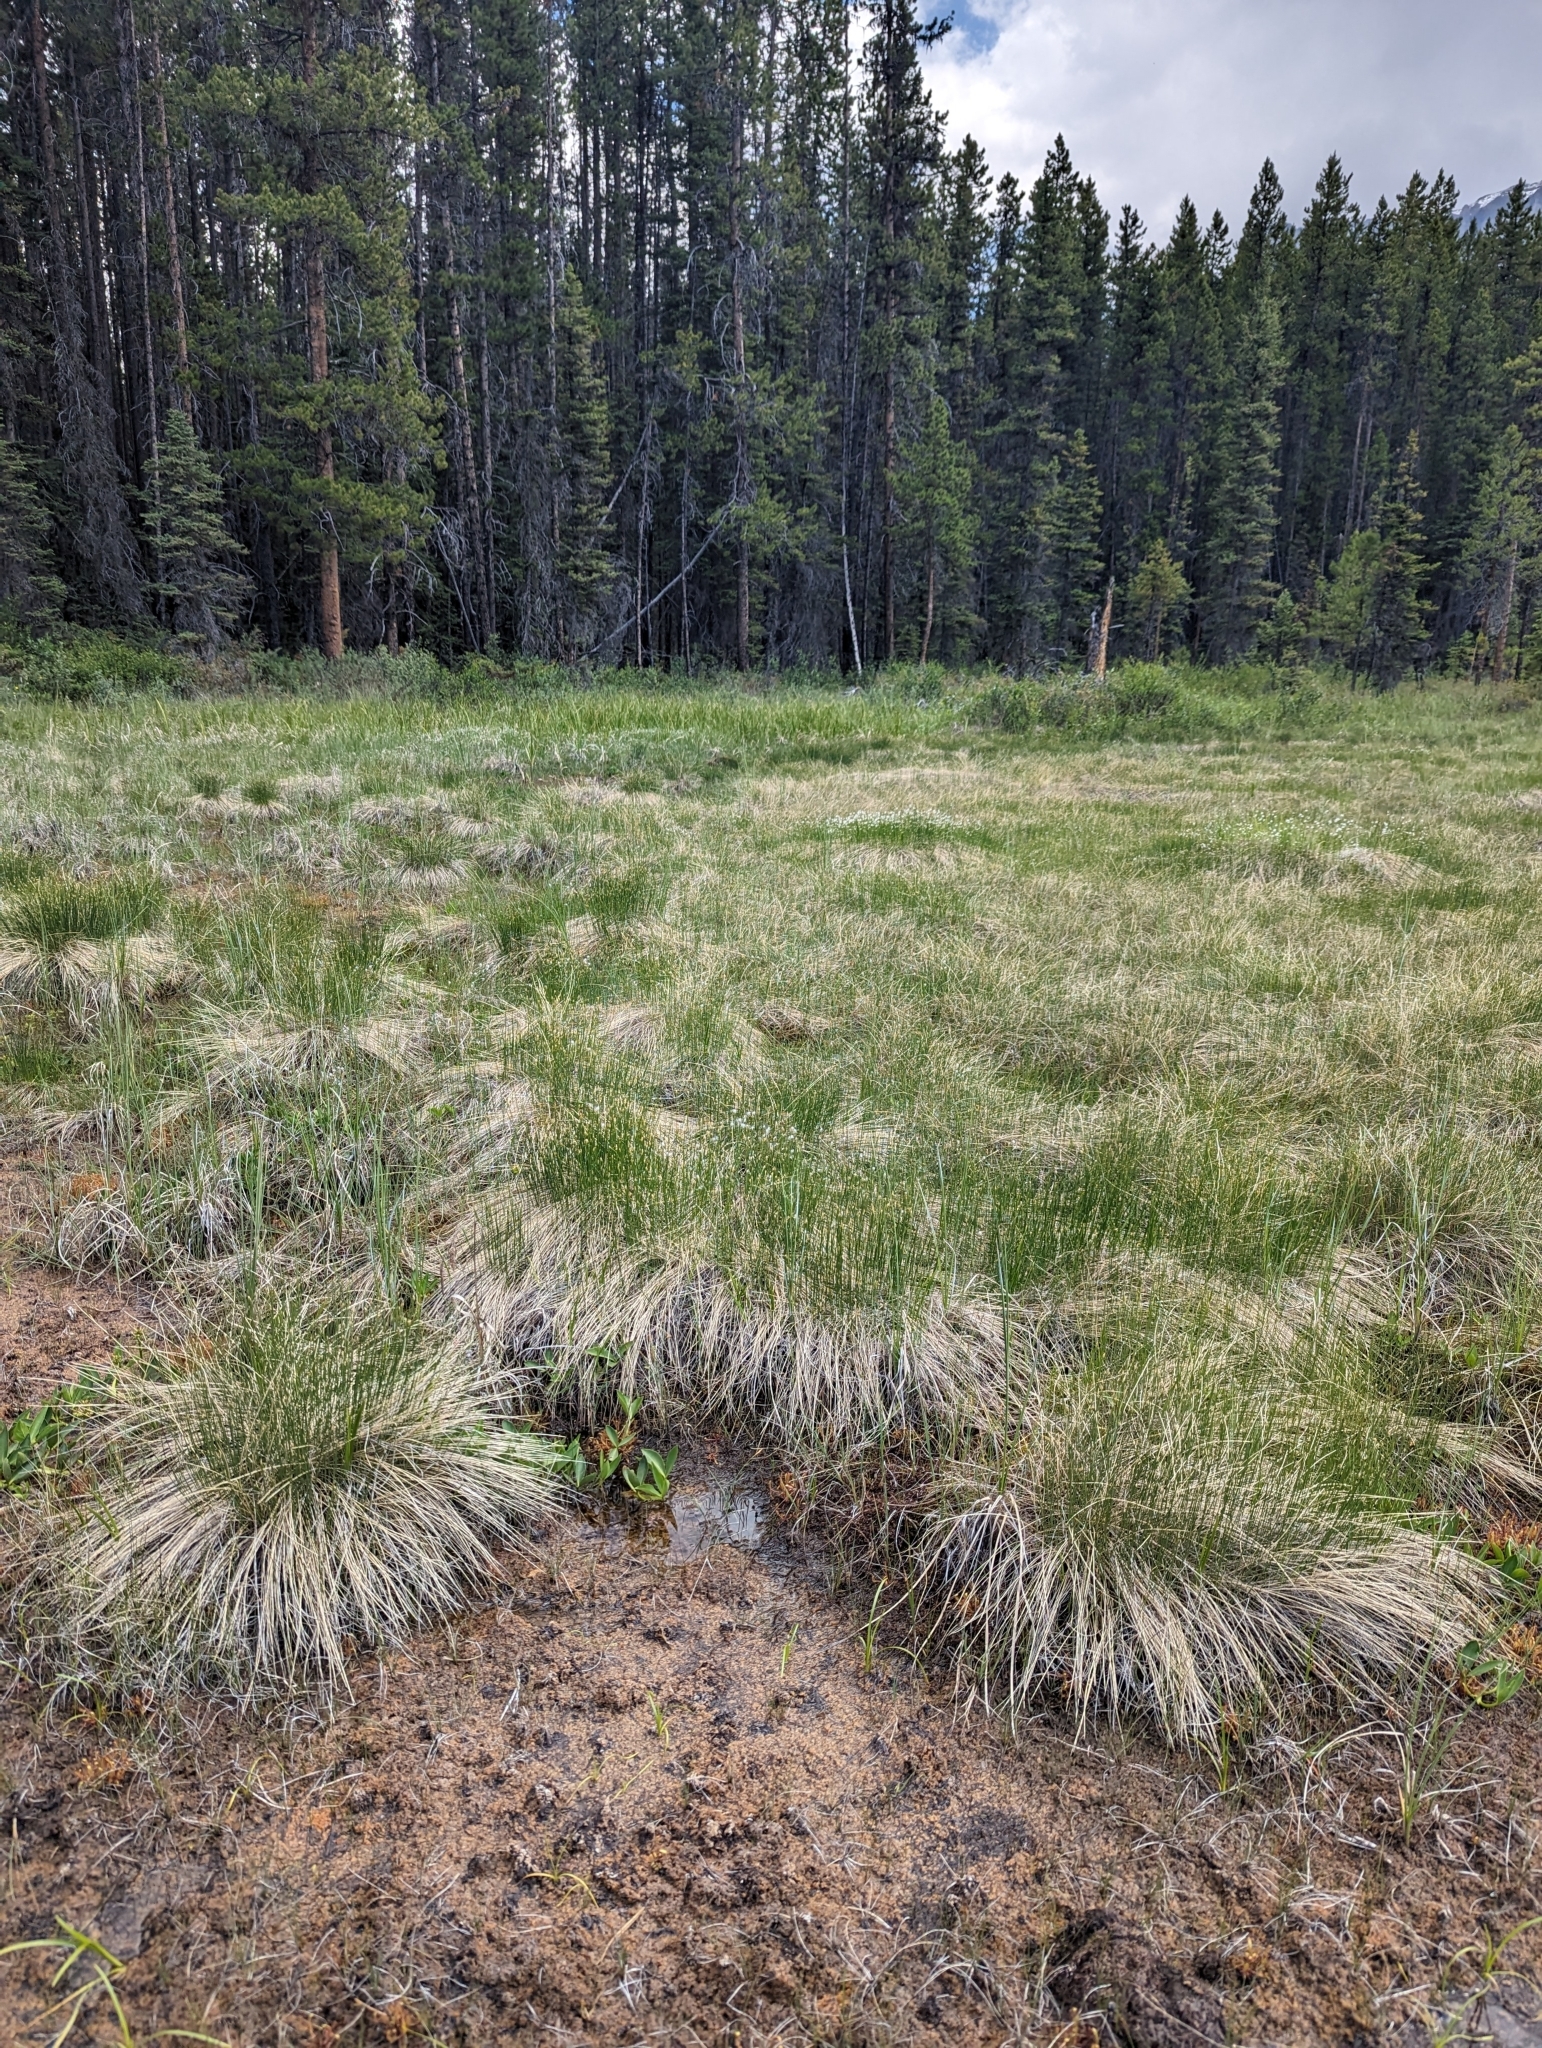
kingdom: Plantae
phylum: Tracheophyta
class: Liliopsida
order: Poales
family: Cyperaceae
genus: Trichophorum
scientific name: Trichophorum alpinum
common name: Alpine bulrush
